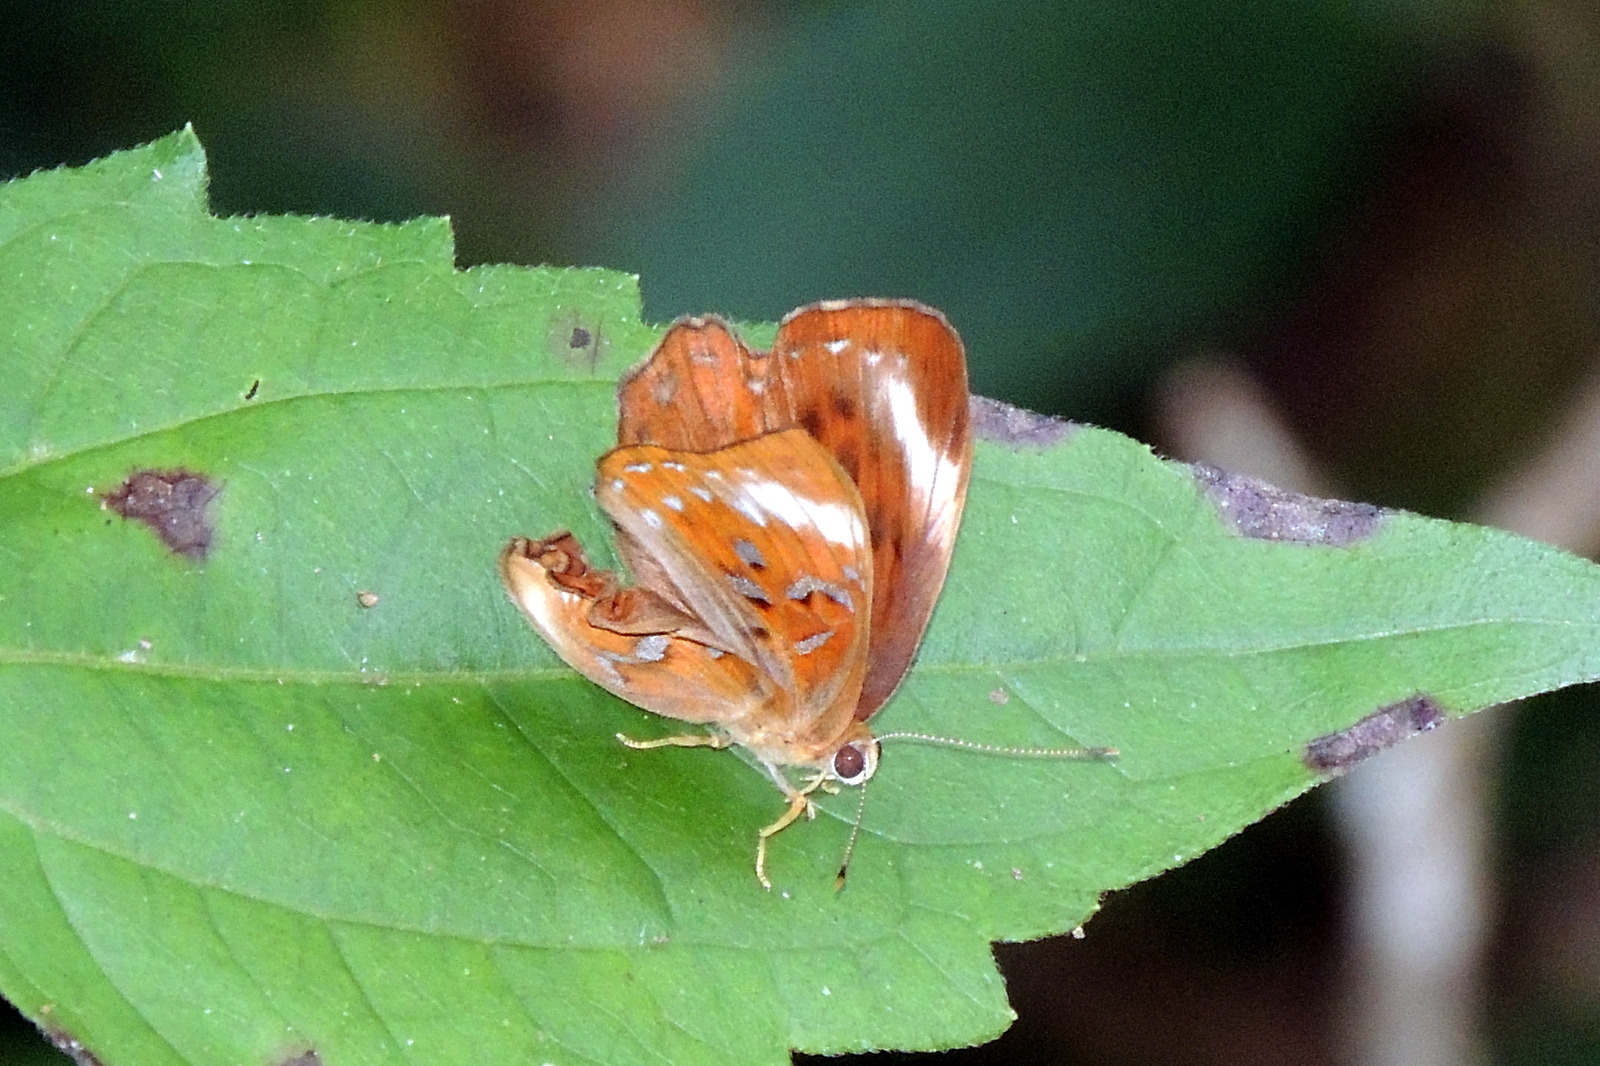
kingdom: Animalia
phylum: Arthropoda
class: Insecta
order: Lepidoptera
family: Erebidae
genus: Dysschema
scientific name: Dysschema
